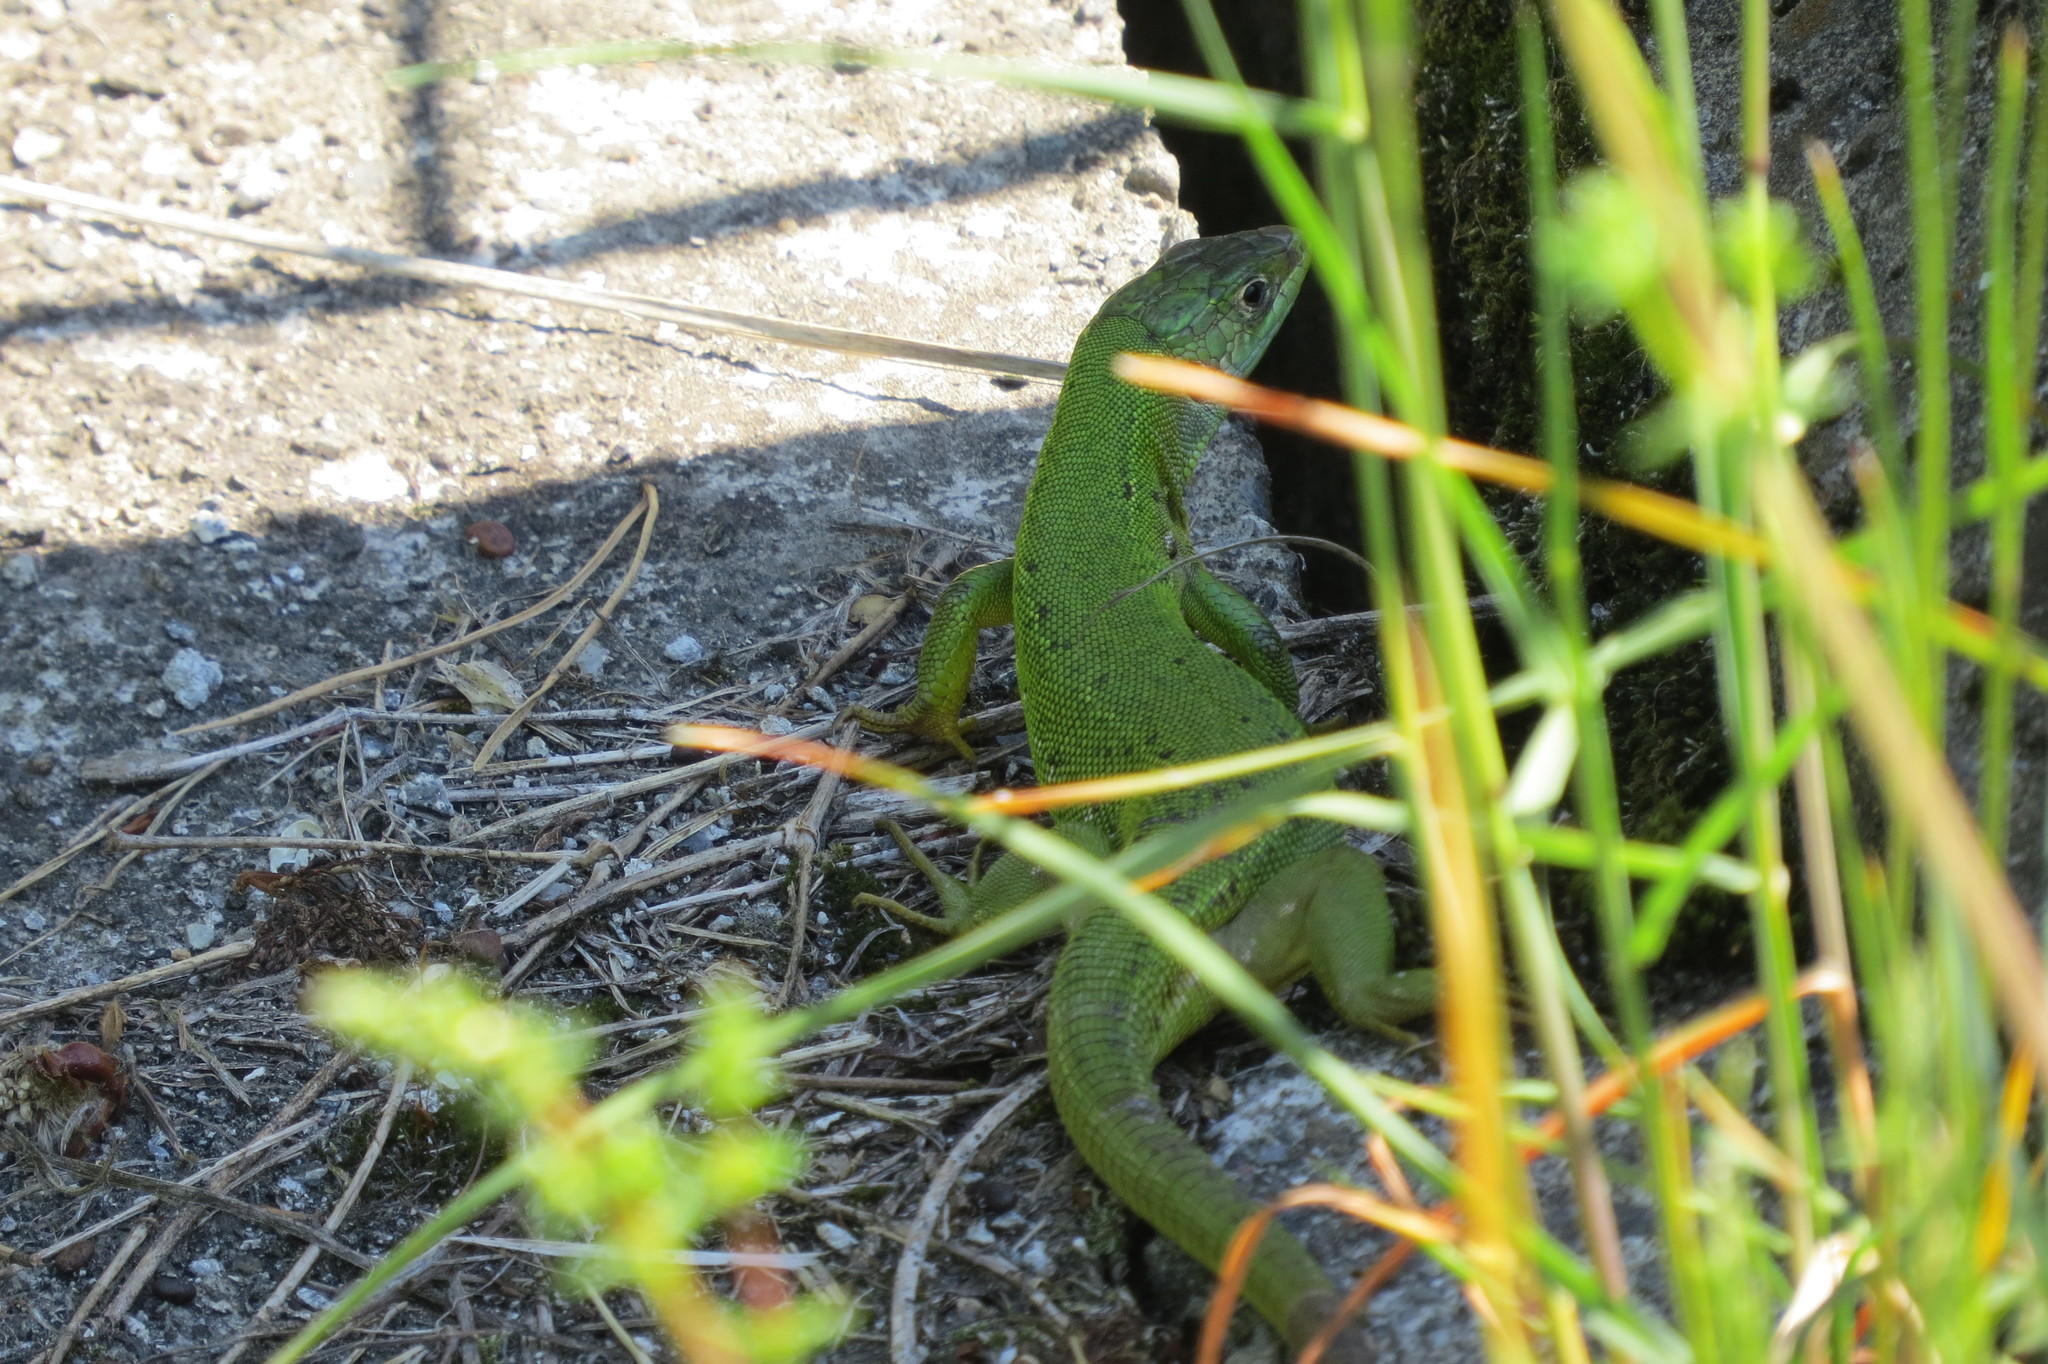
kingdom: Animalia
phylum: Chordata
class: Squamata
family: Lacertidae
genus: Lacerta
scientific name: Lacerta bilineata
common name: Western green lizard
